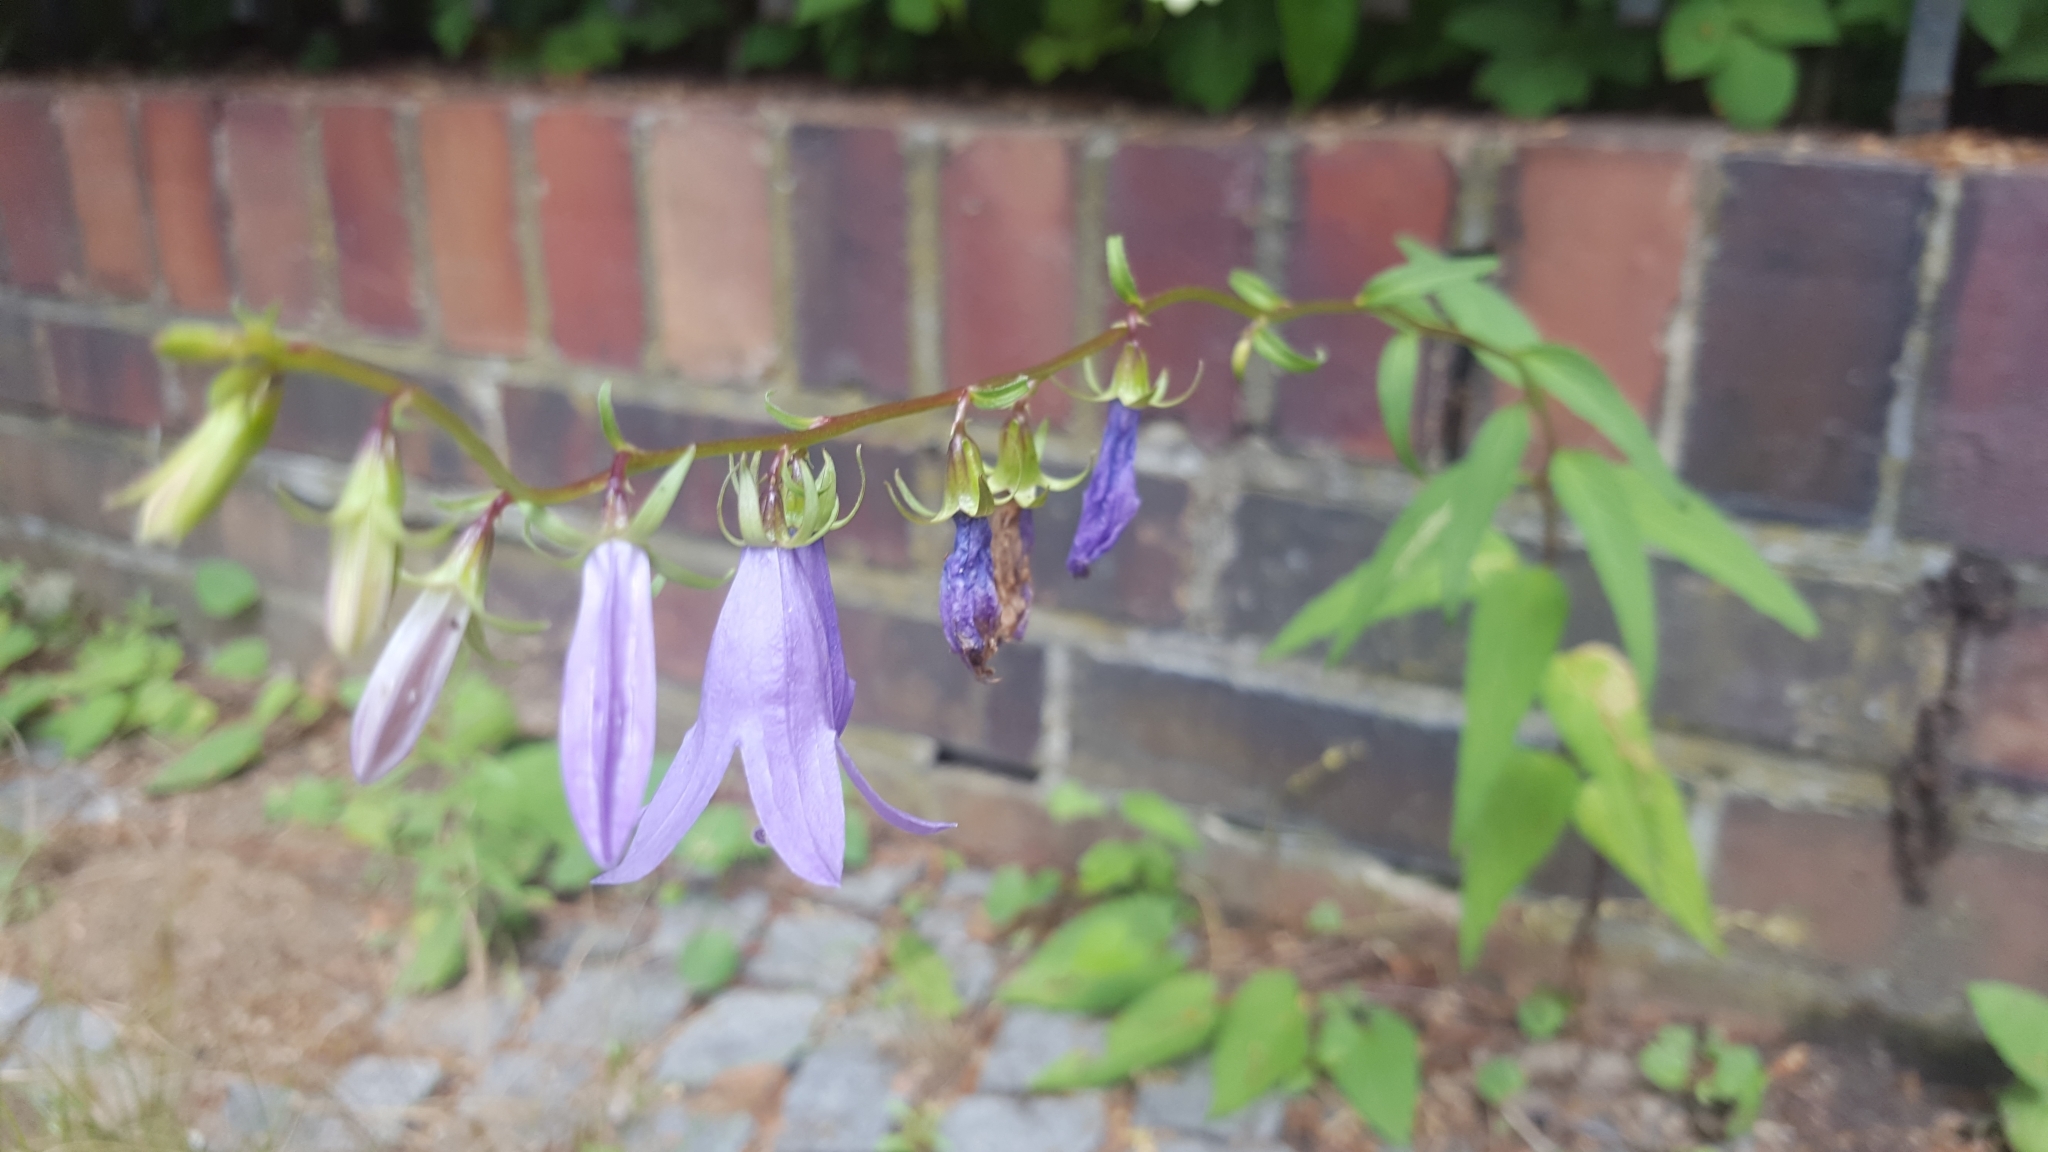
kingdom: Plantae
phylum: Tracheophyta
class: Magnoliopsida
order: Asterales
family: Campanulaceae
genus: Campanula
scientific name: Campanula rapunculoides
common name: Creeping bellflower
